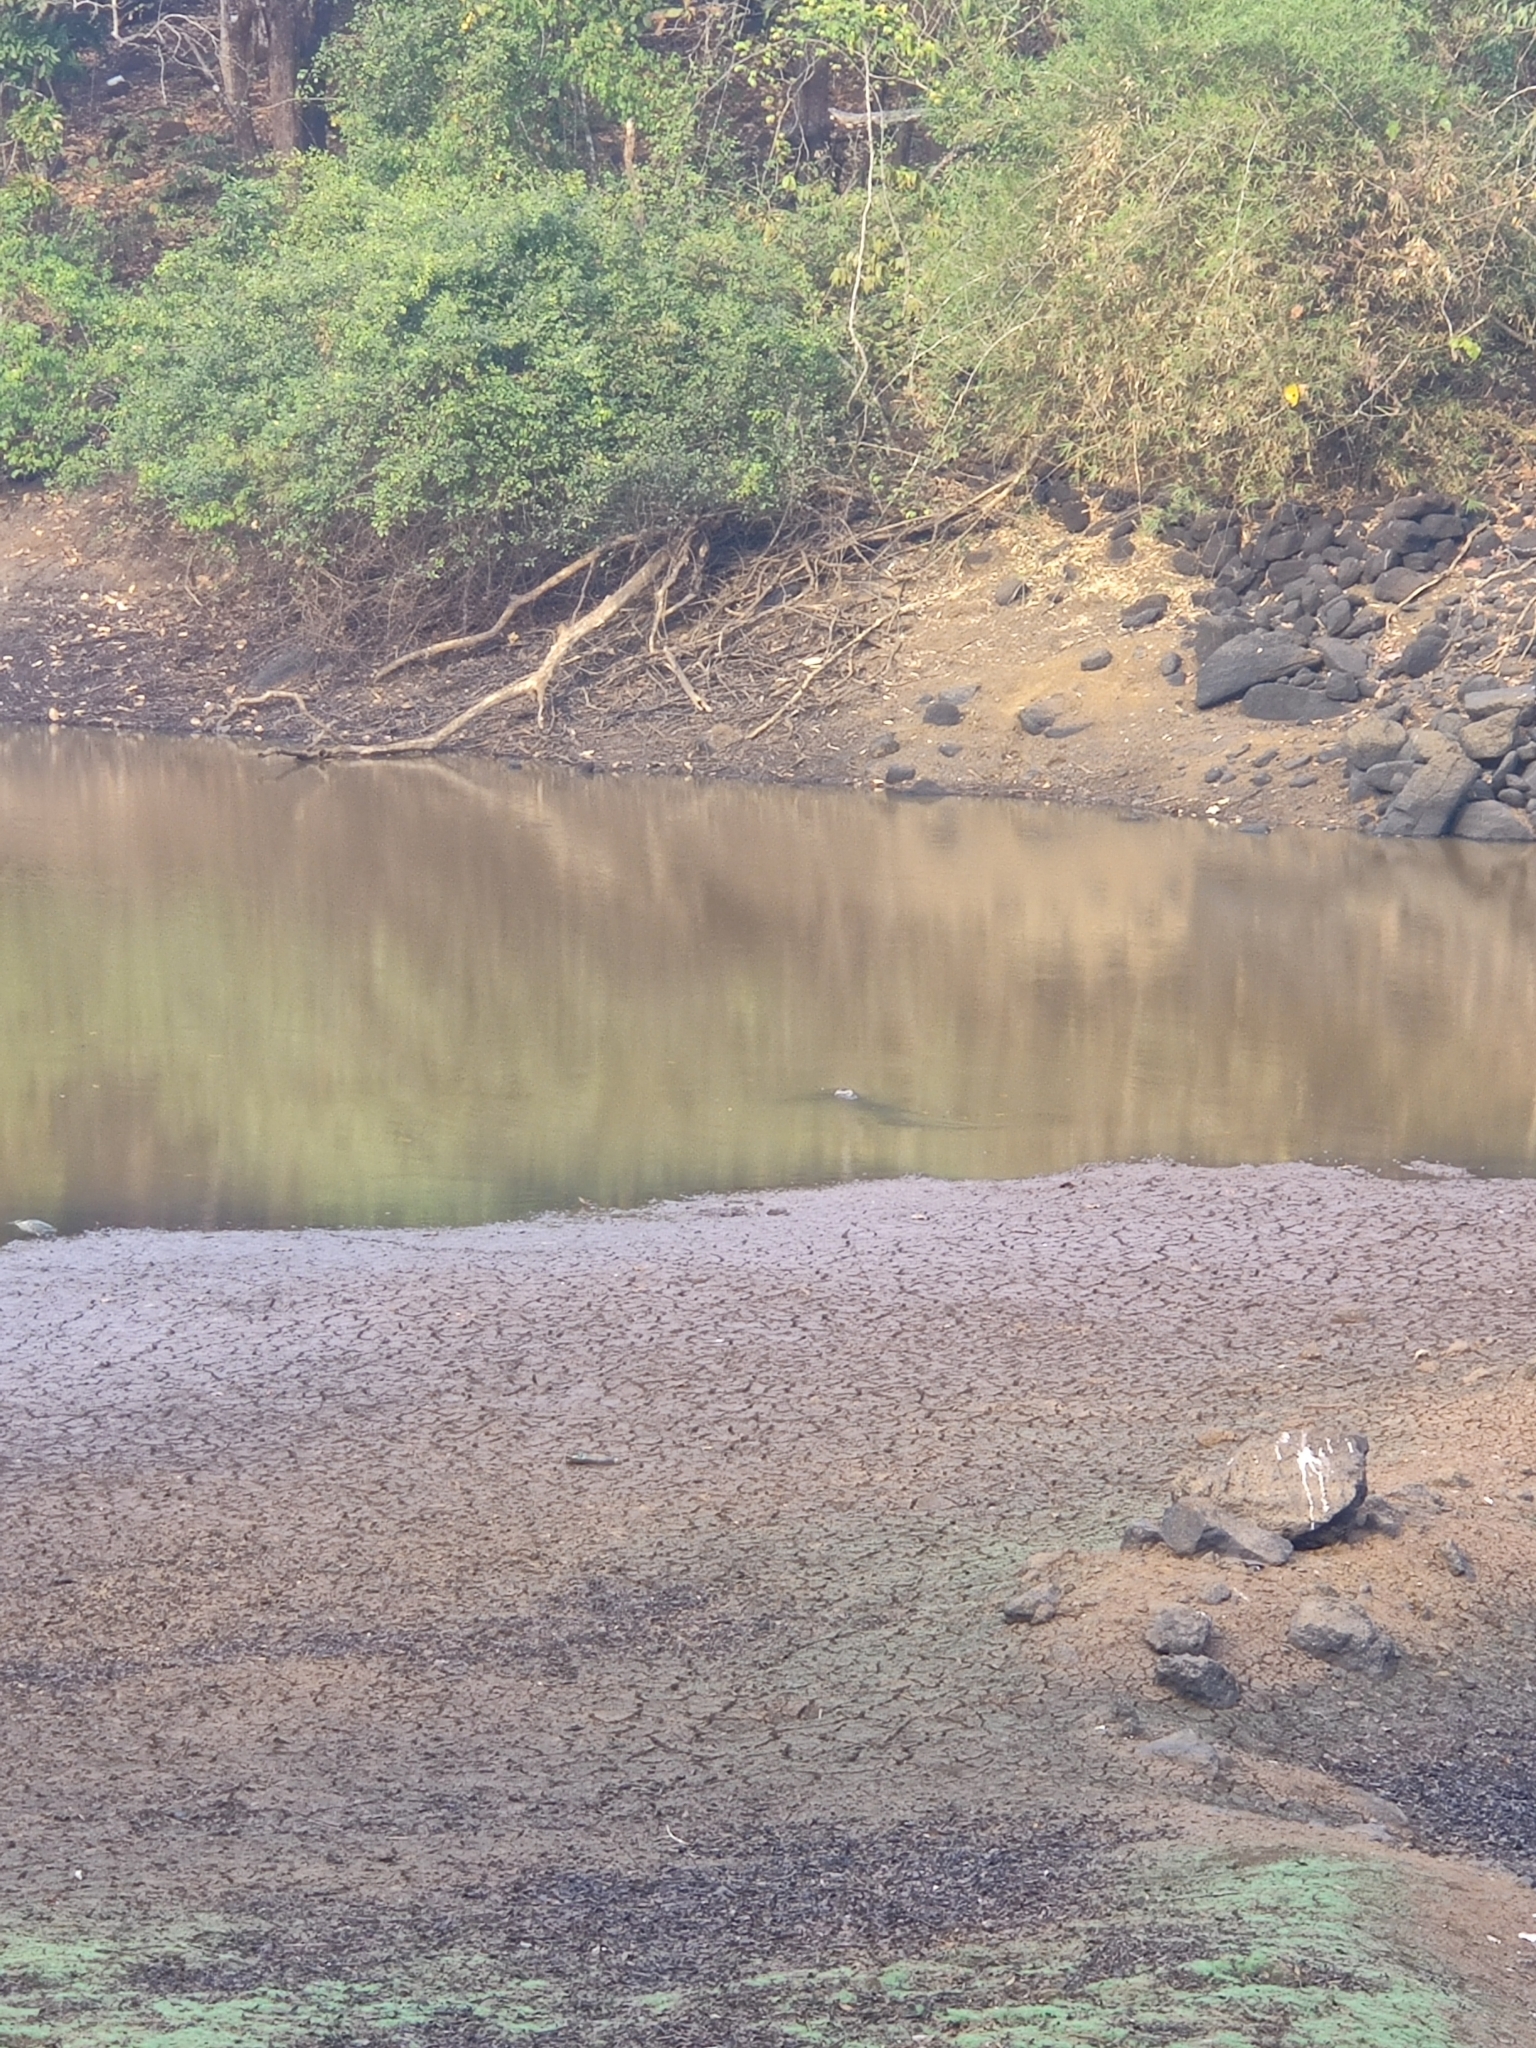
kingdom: Animalia
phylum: Chordata
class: Crocodylia
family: Crocodylidae
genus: Crocodylus
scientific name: Crocodylus palustris
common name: Mugger crocodile
